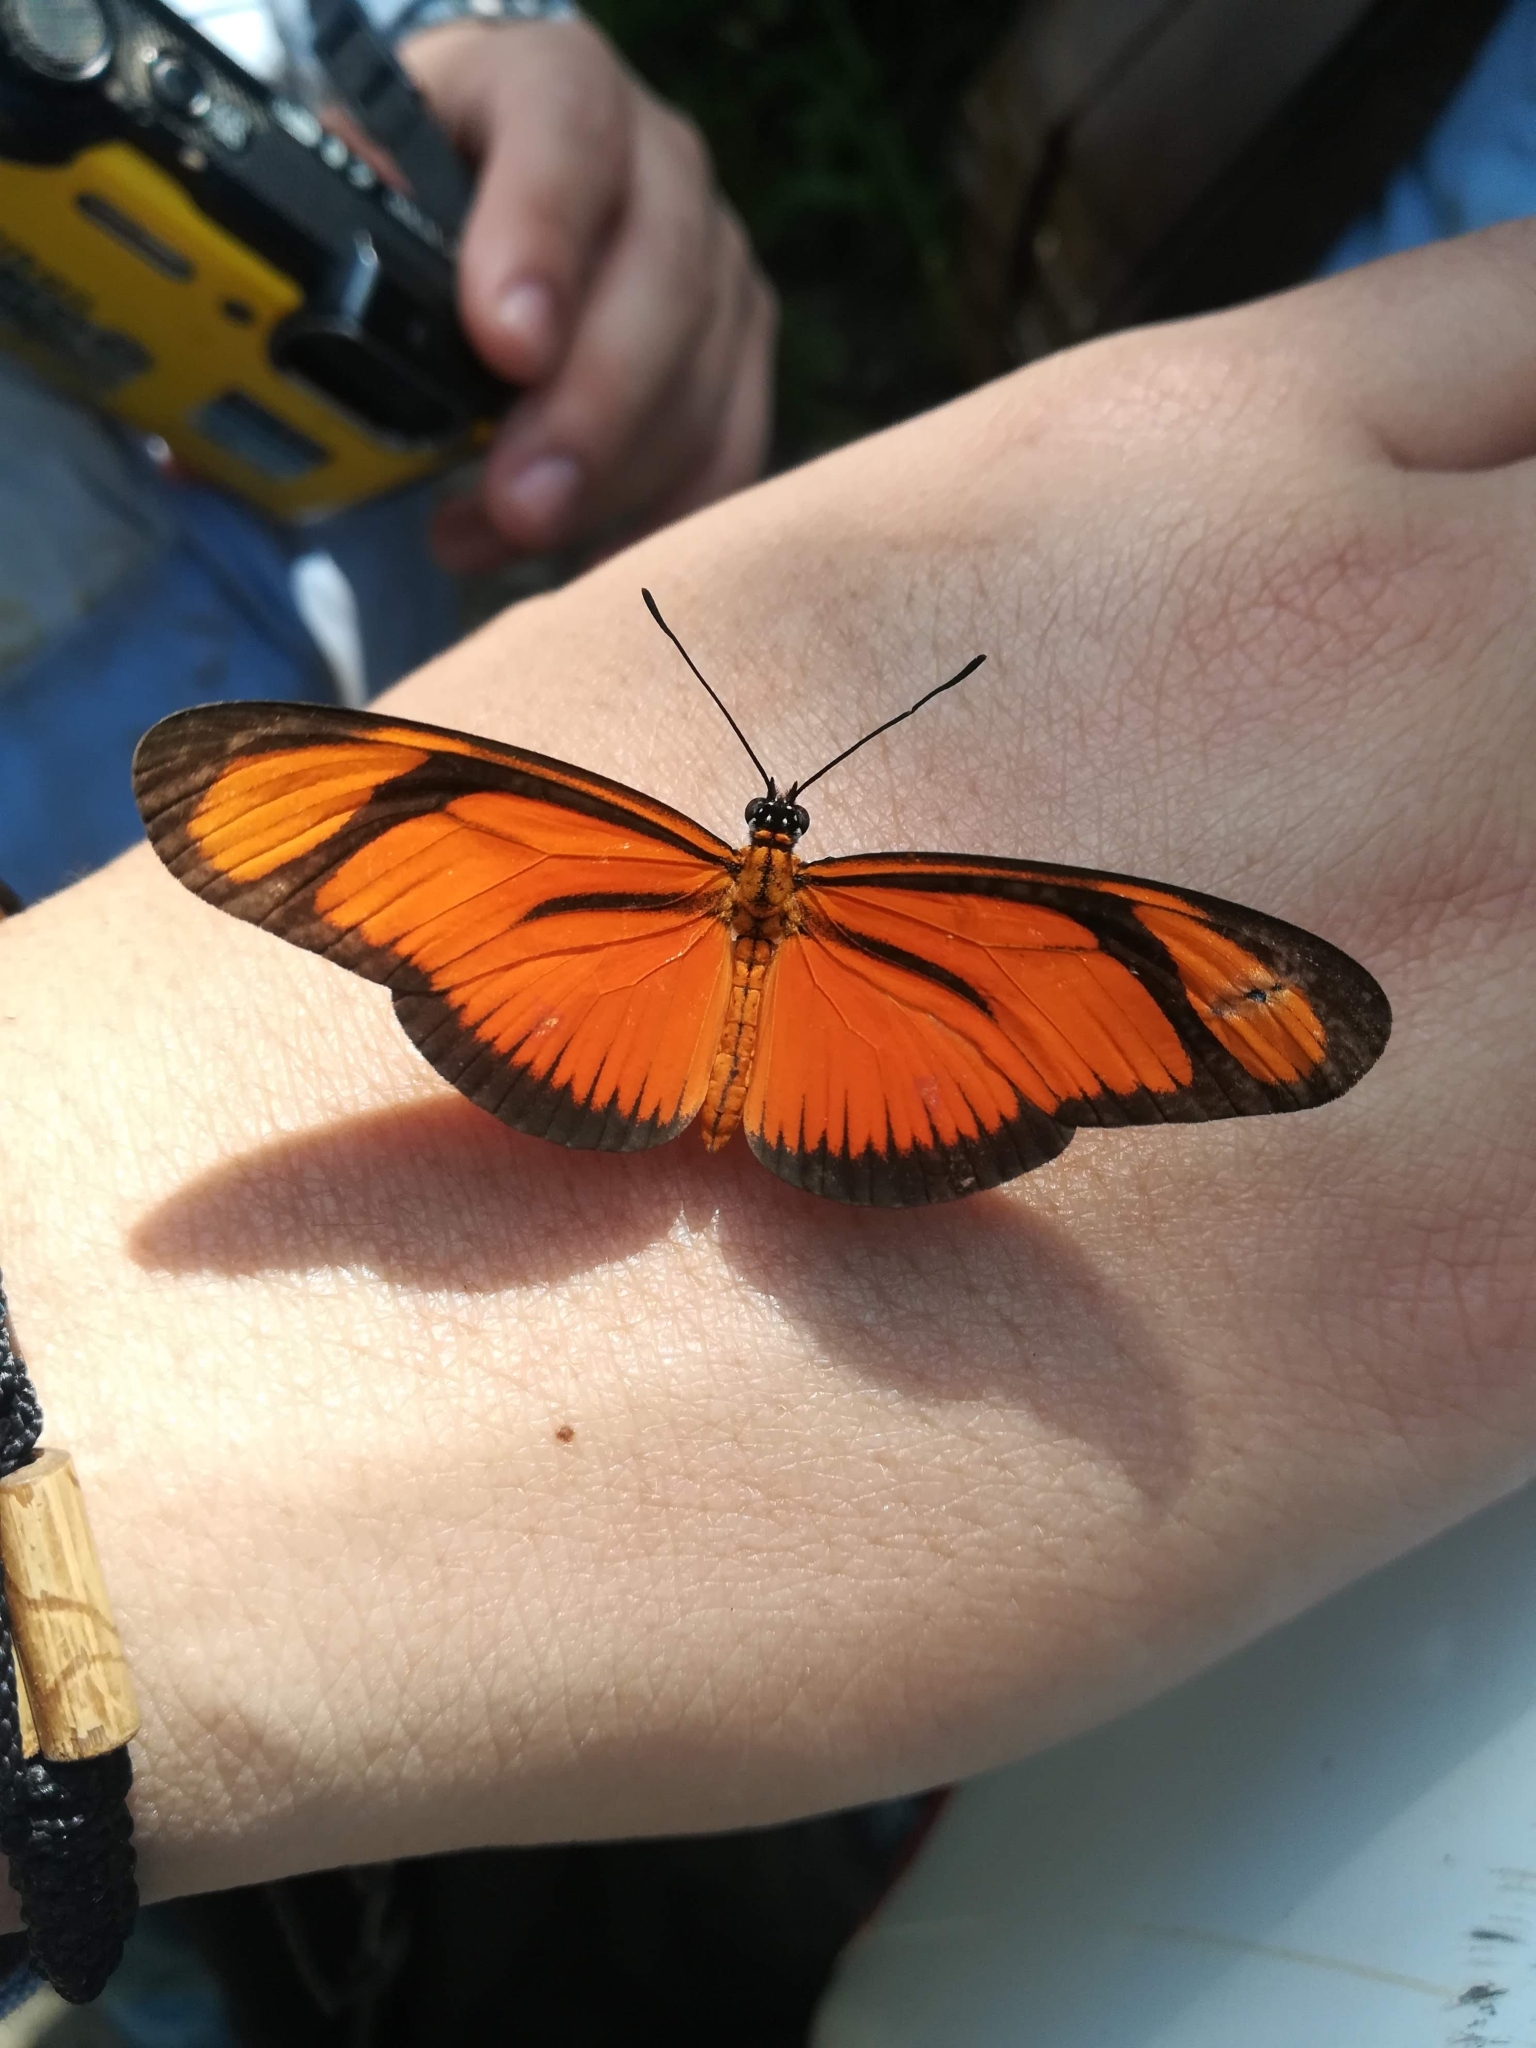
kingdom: Animalia
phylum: Arthropoda
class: Insecta
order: Lepidoptera
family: Nymphalidae
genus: Heliconius
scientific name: Heliconius aliphera
